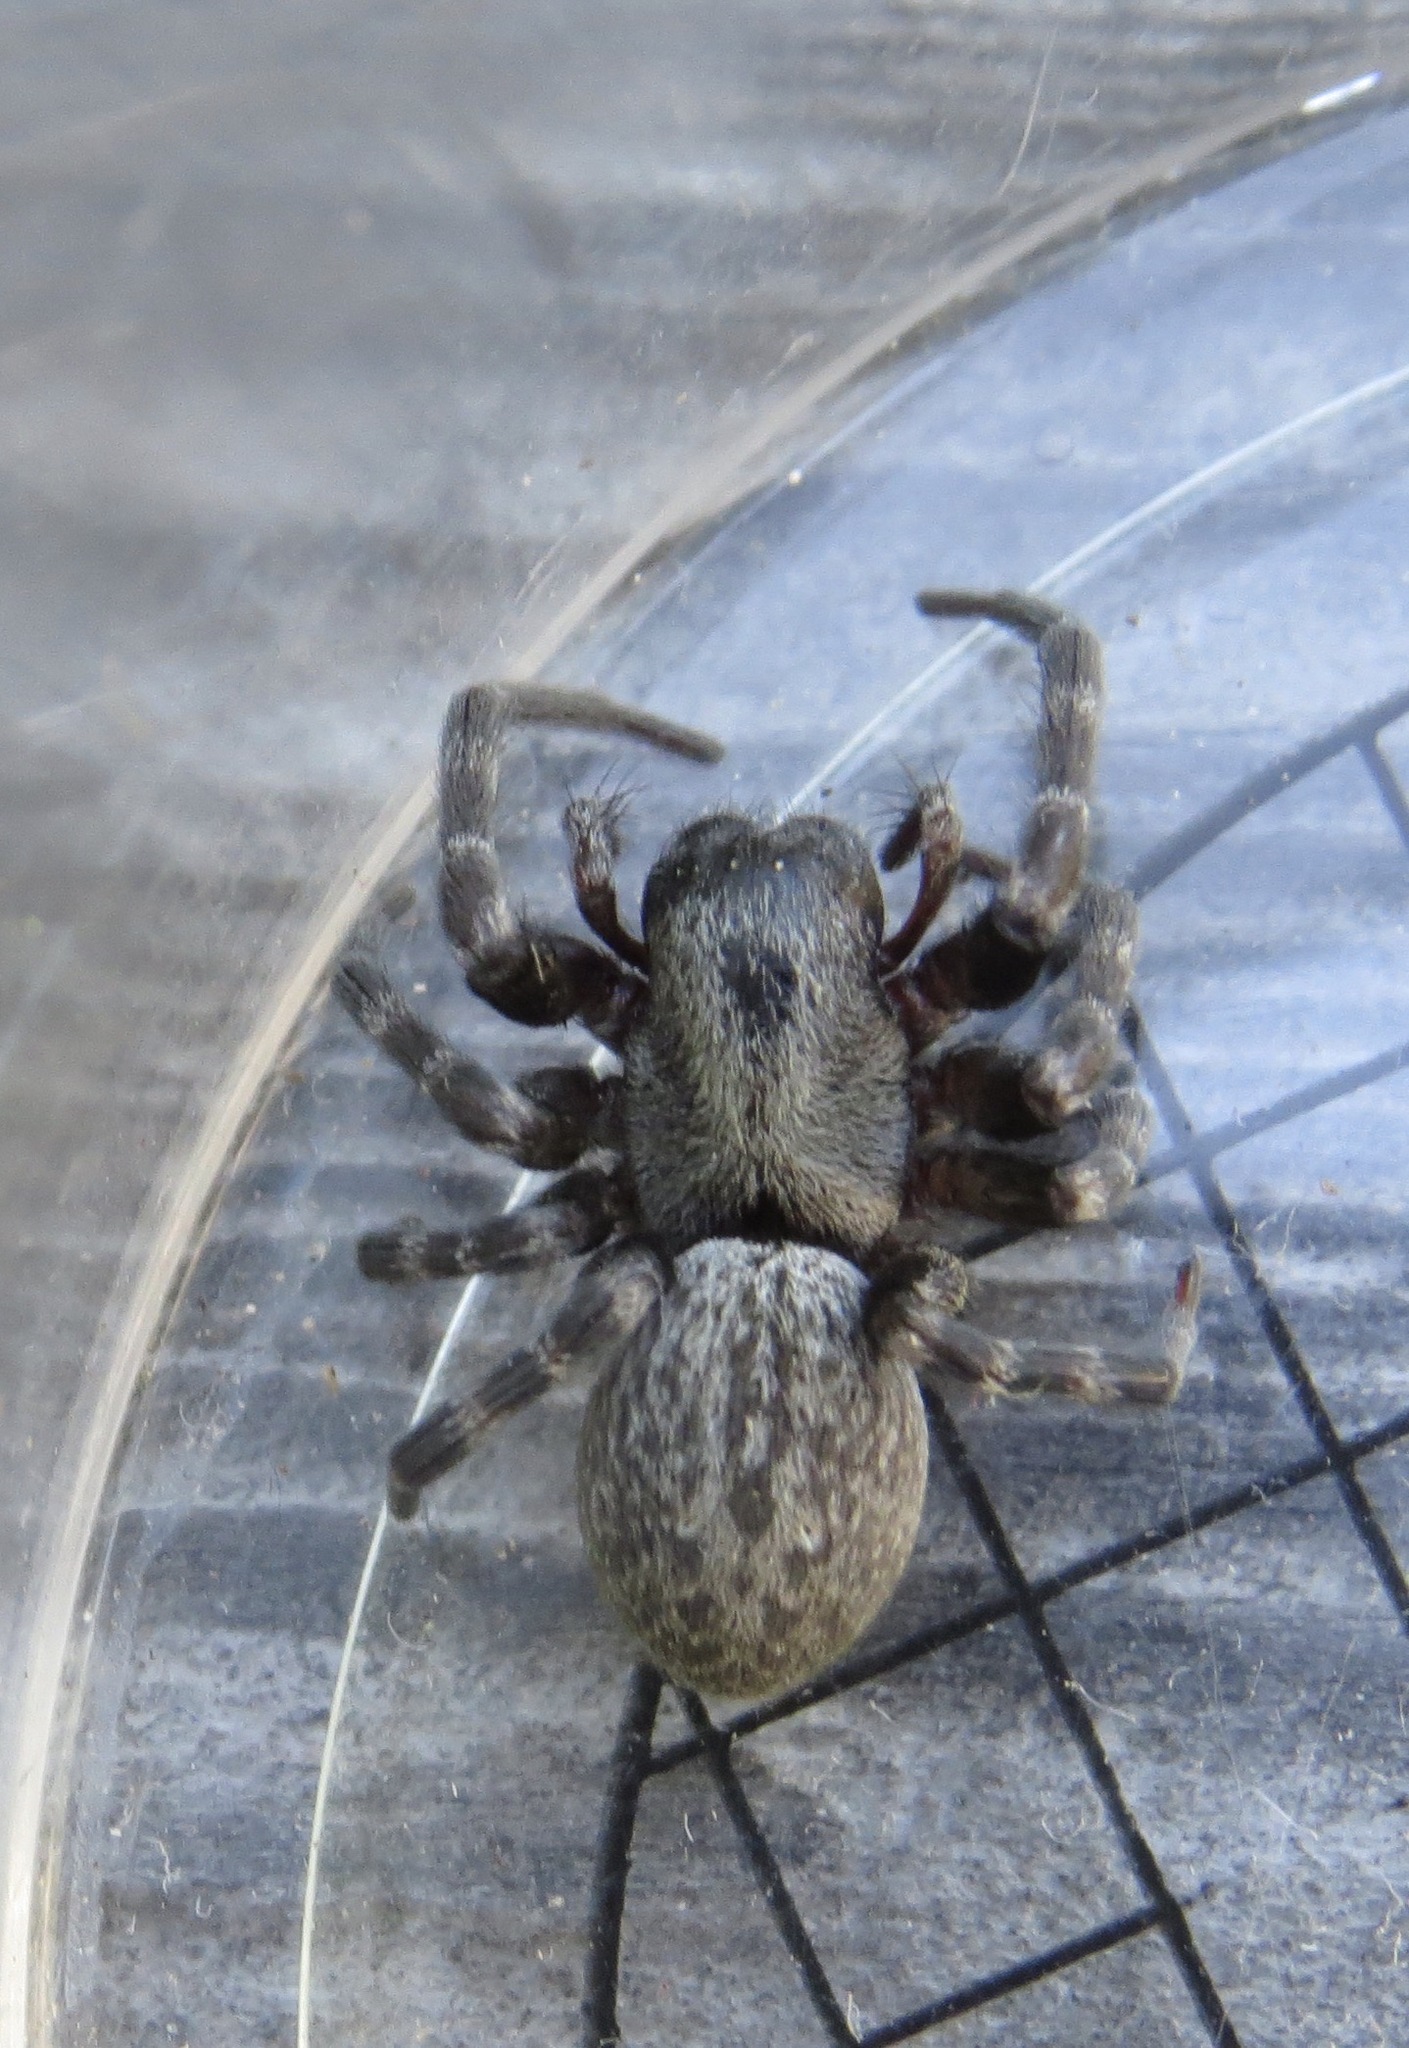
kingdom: Animalia
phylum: Arthropoda
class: Arachnida
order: Araneae
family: Desidae
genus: Badumna
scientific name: Badumna longinqua
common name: Gray house spider
